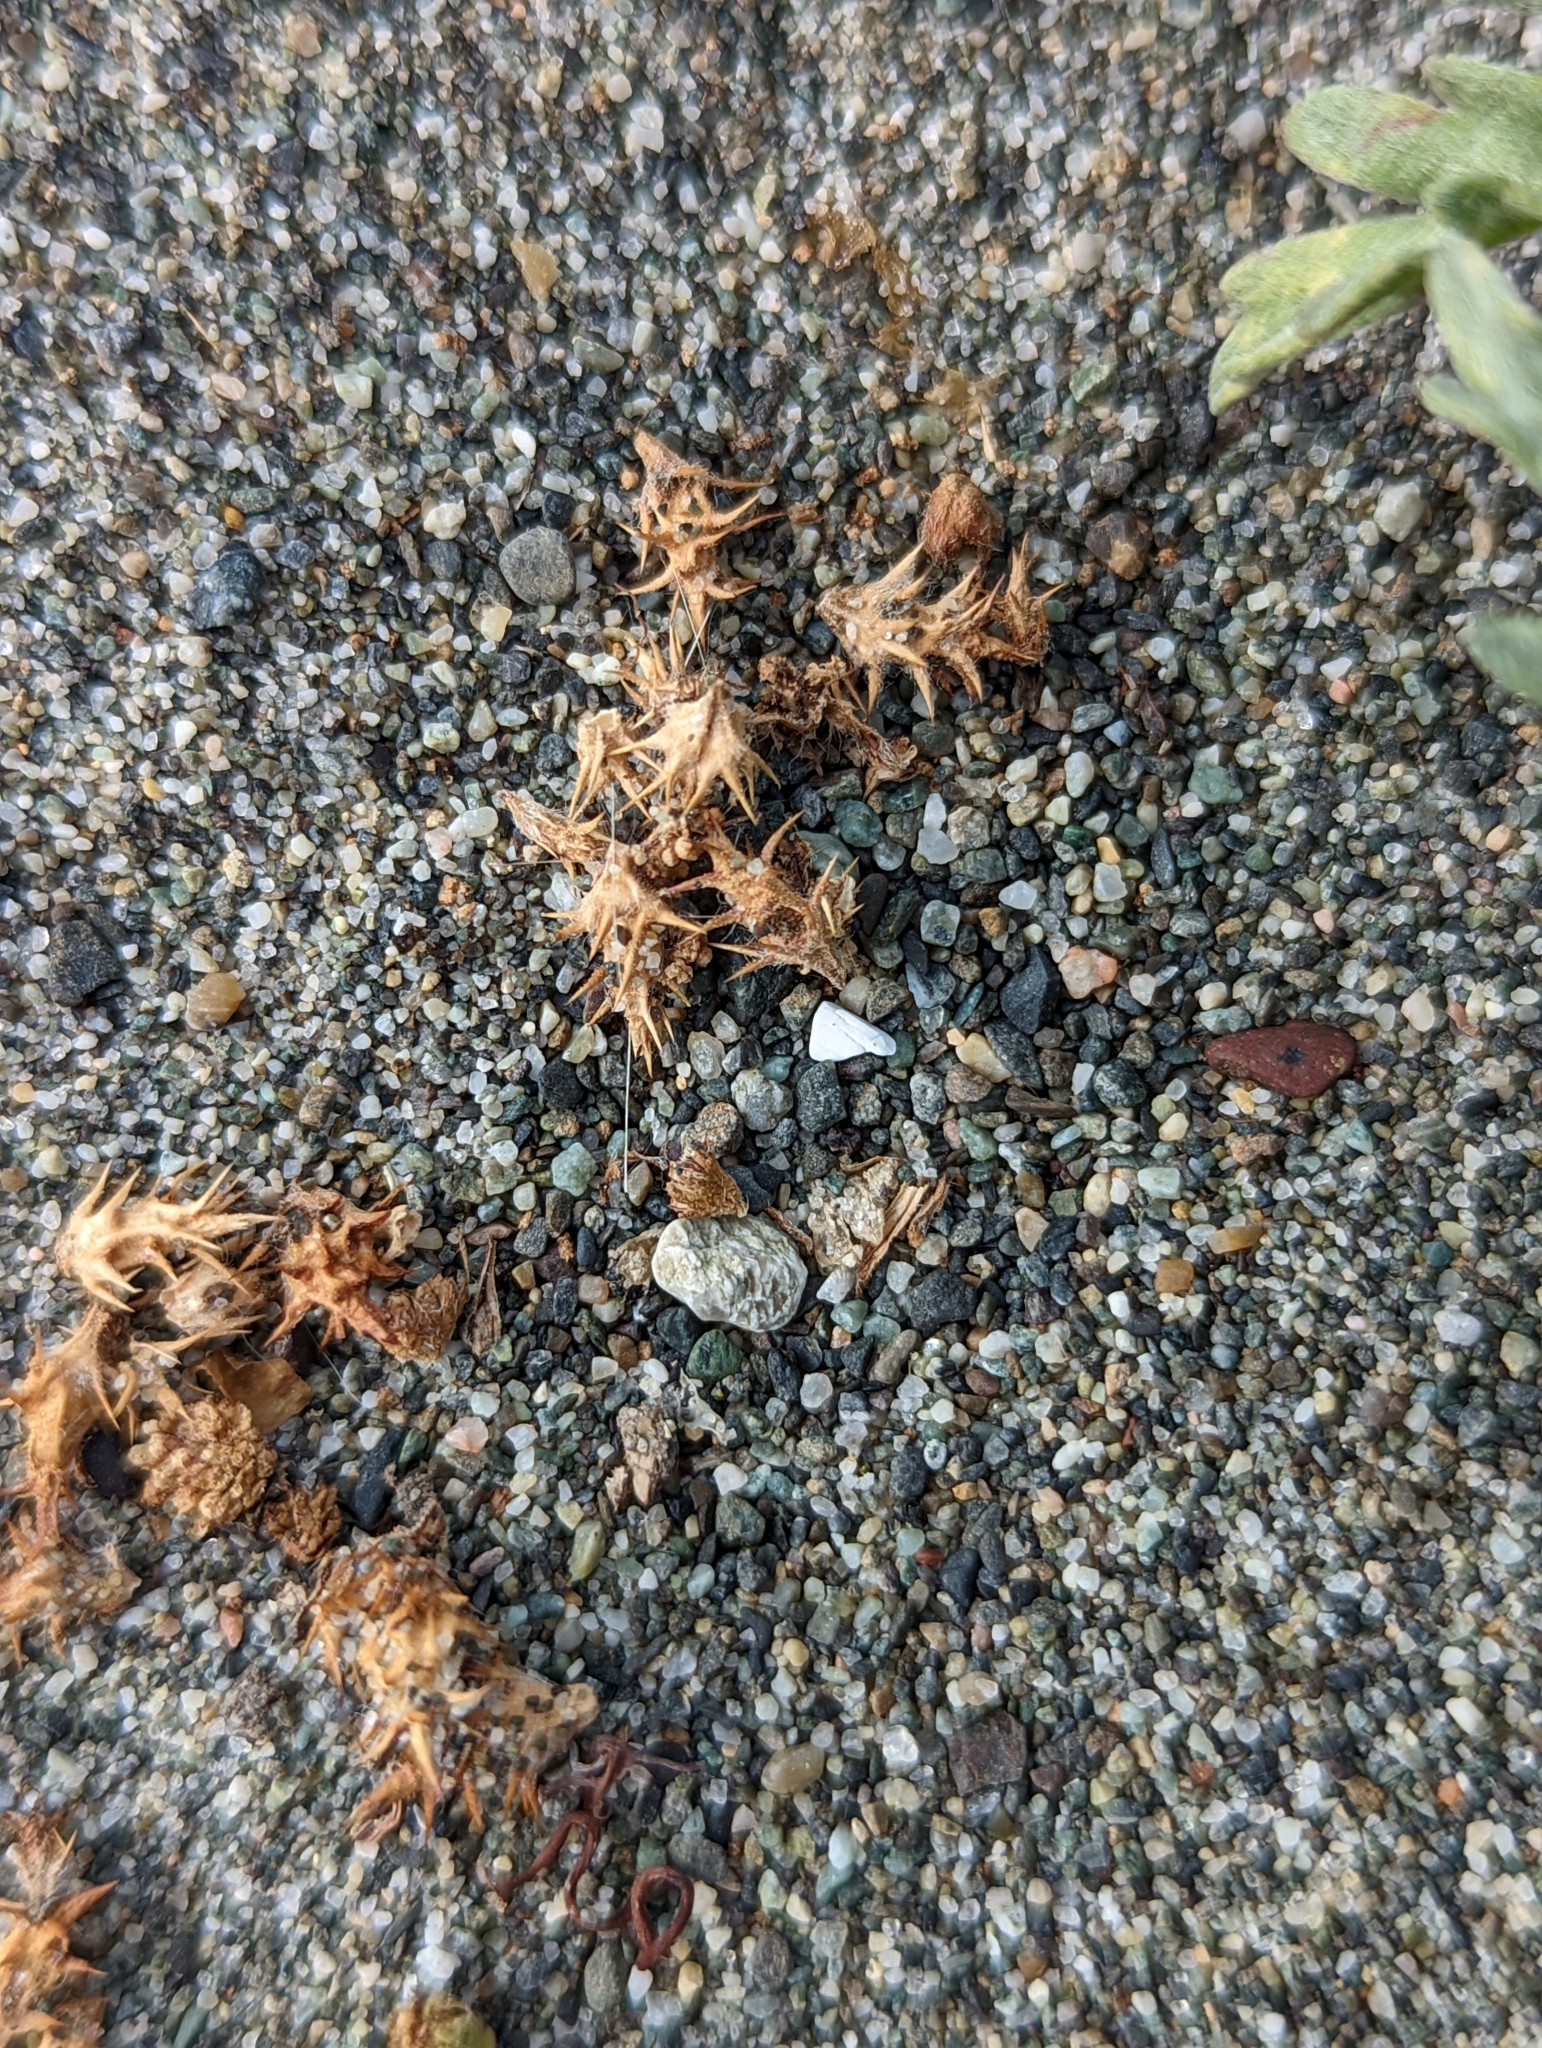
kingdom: Plantae
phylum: Tracheophyta
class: Magnoliopsida
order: Asterales
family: Asteraceae
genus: Ambrosia
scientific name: Ambrosia chamissonis
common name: Beachbur
